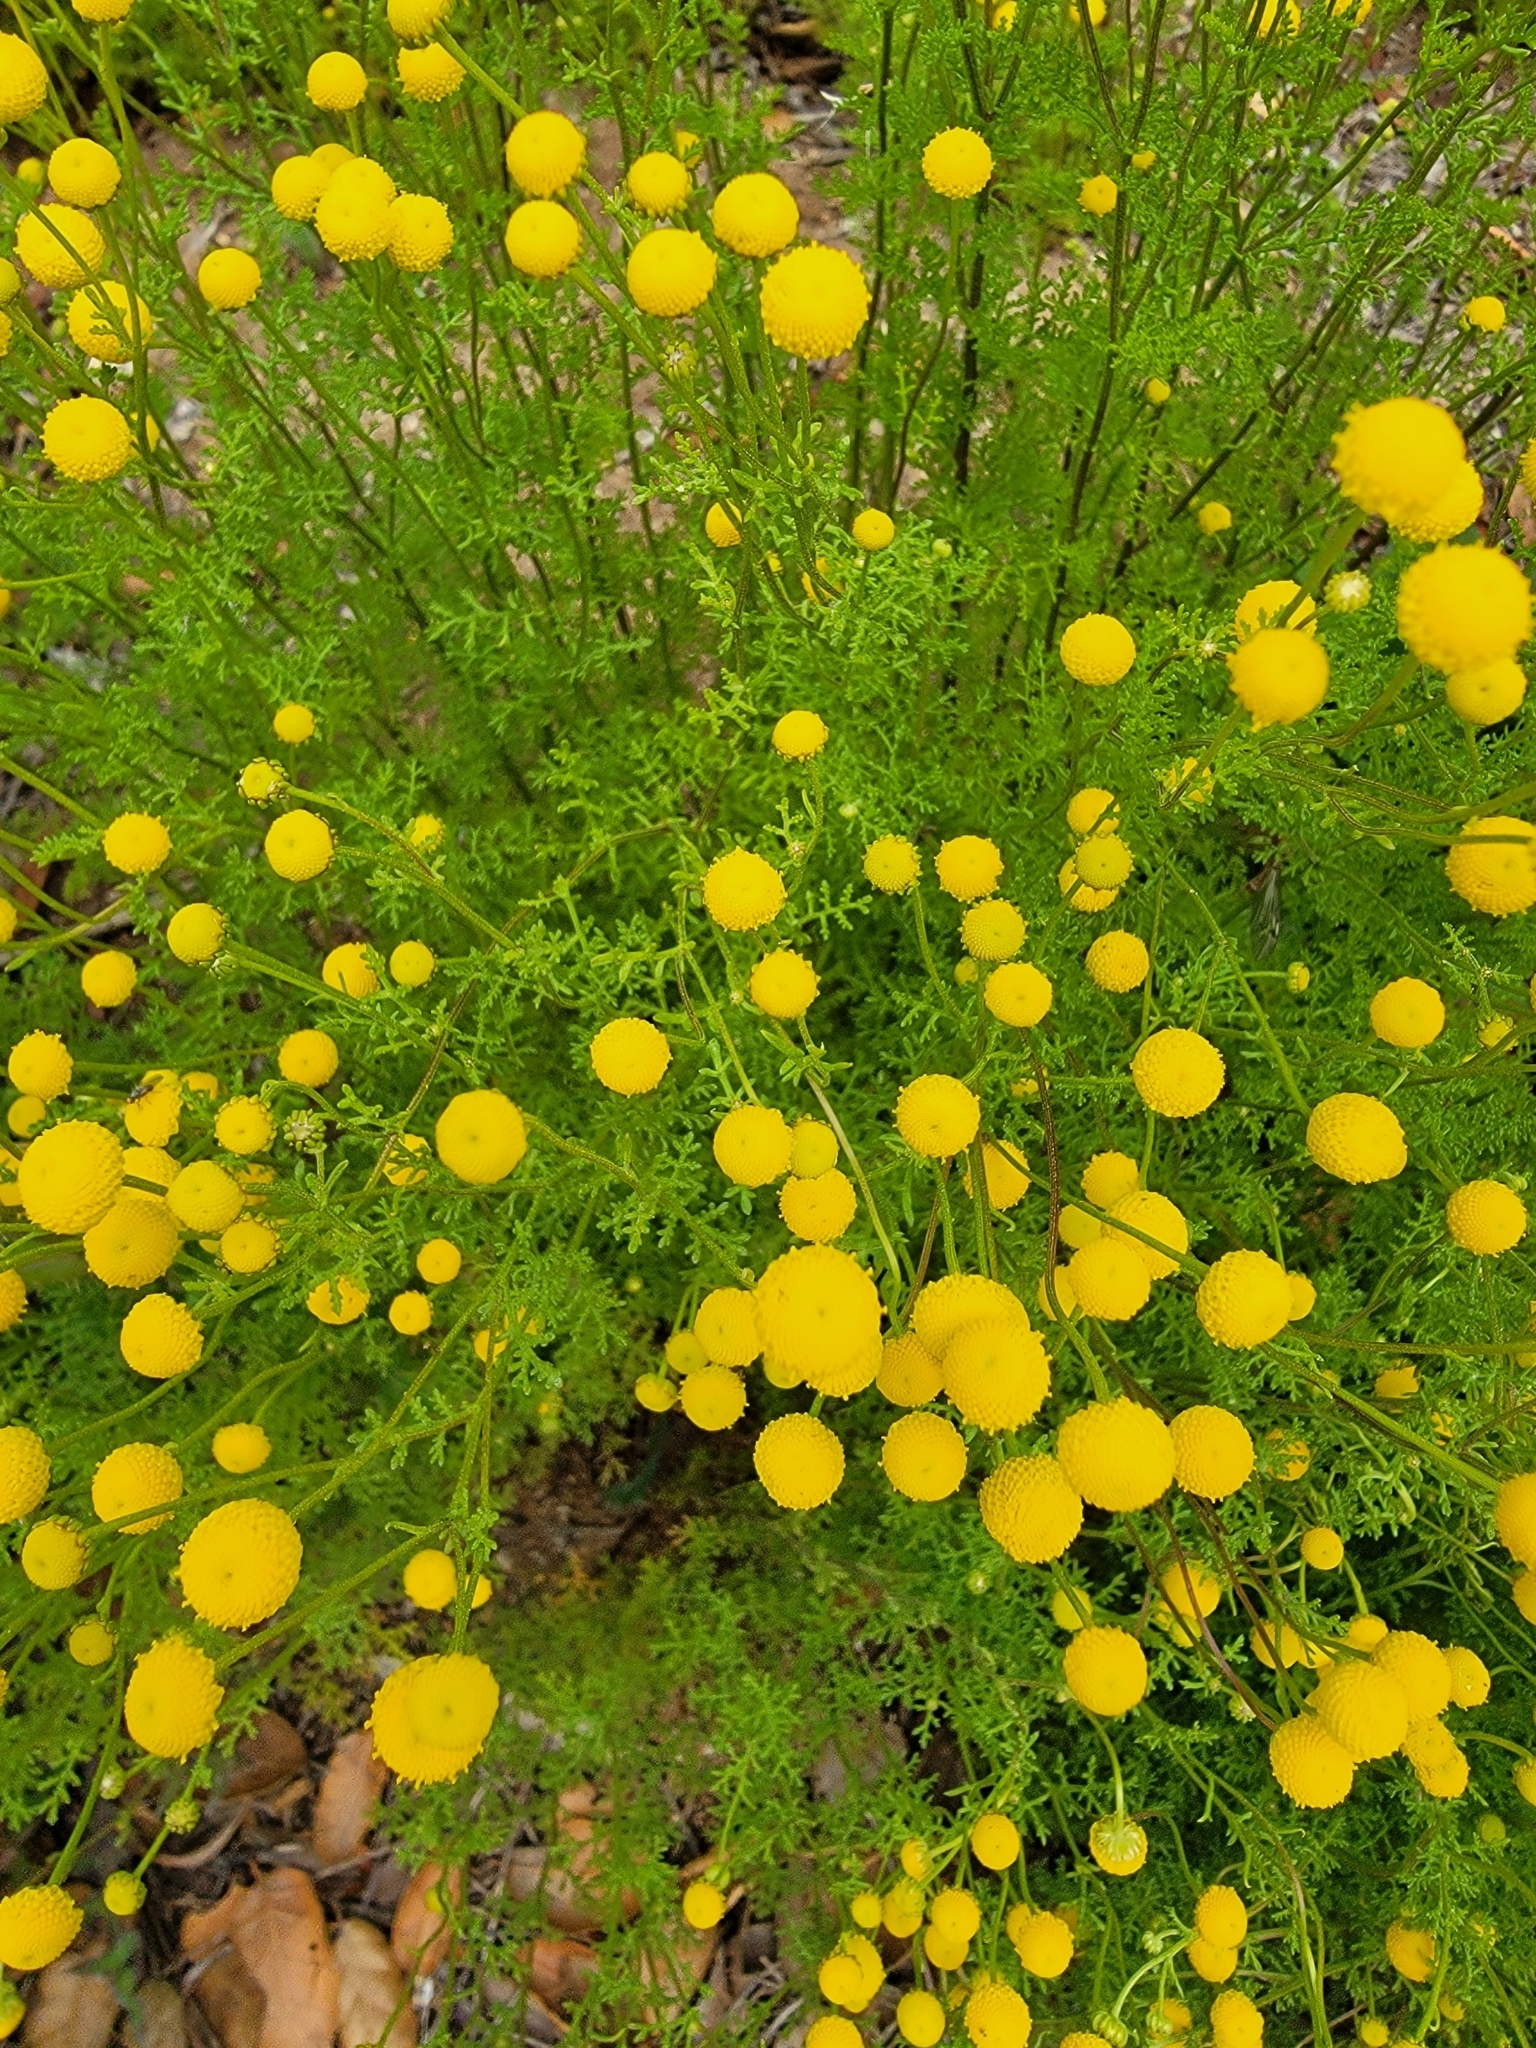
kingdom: Plantae
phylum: Tracheophyta
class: Magnoliopsida
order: Asterales
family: Asteraceae
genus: Oncosiphon
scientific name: Oncosiphon pilulifer
